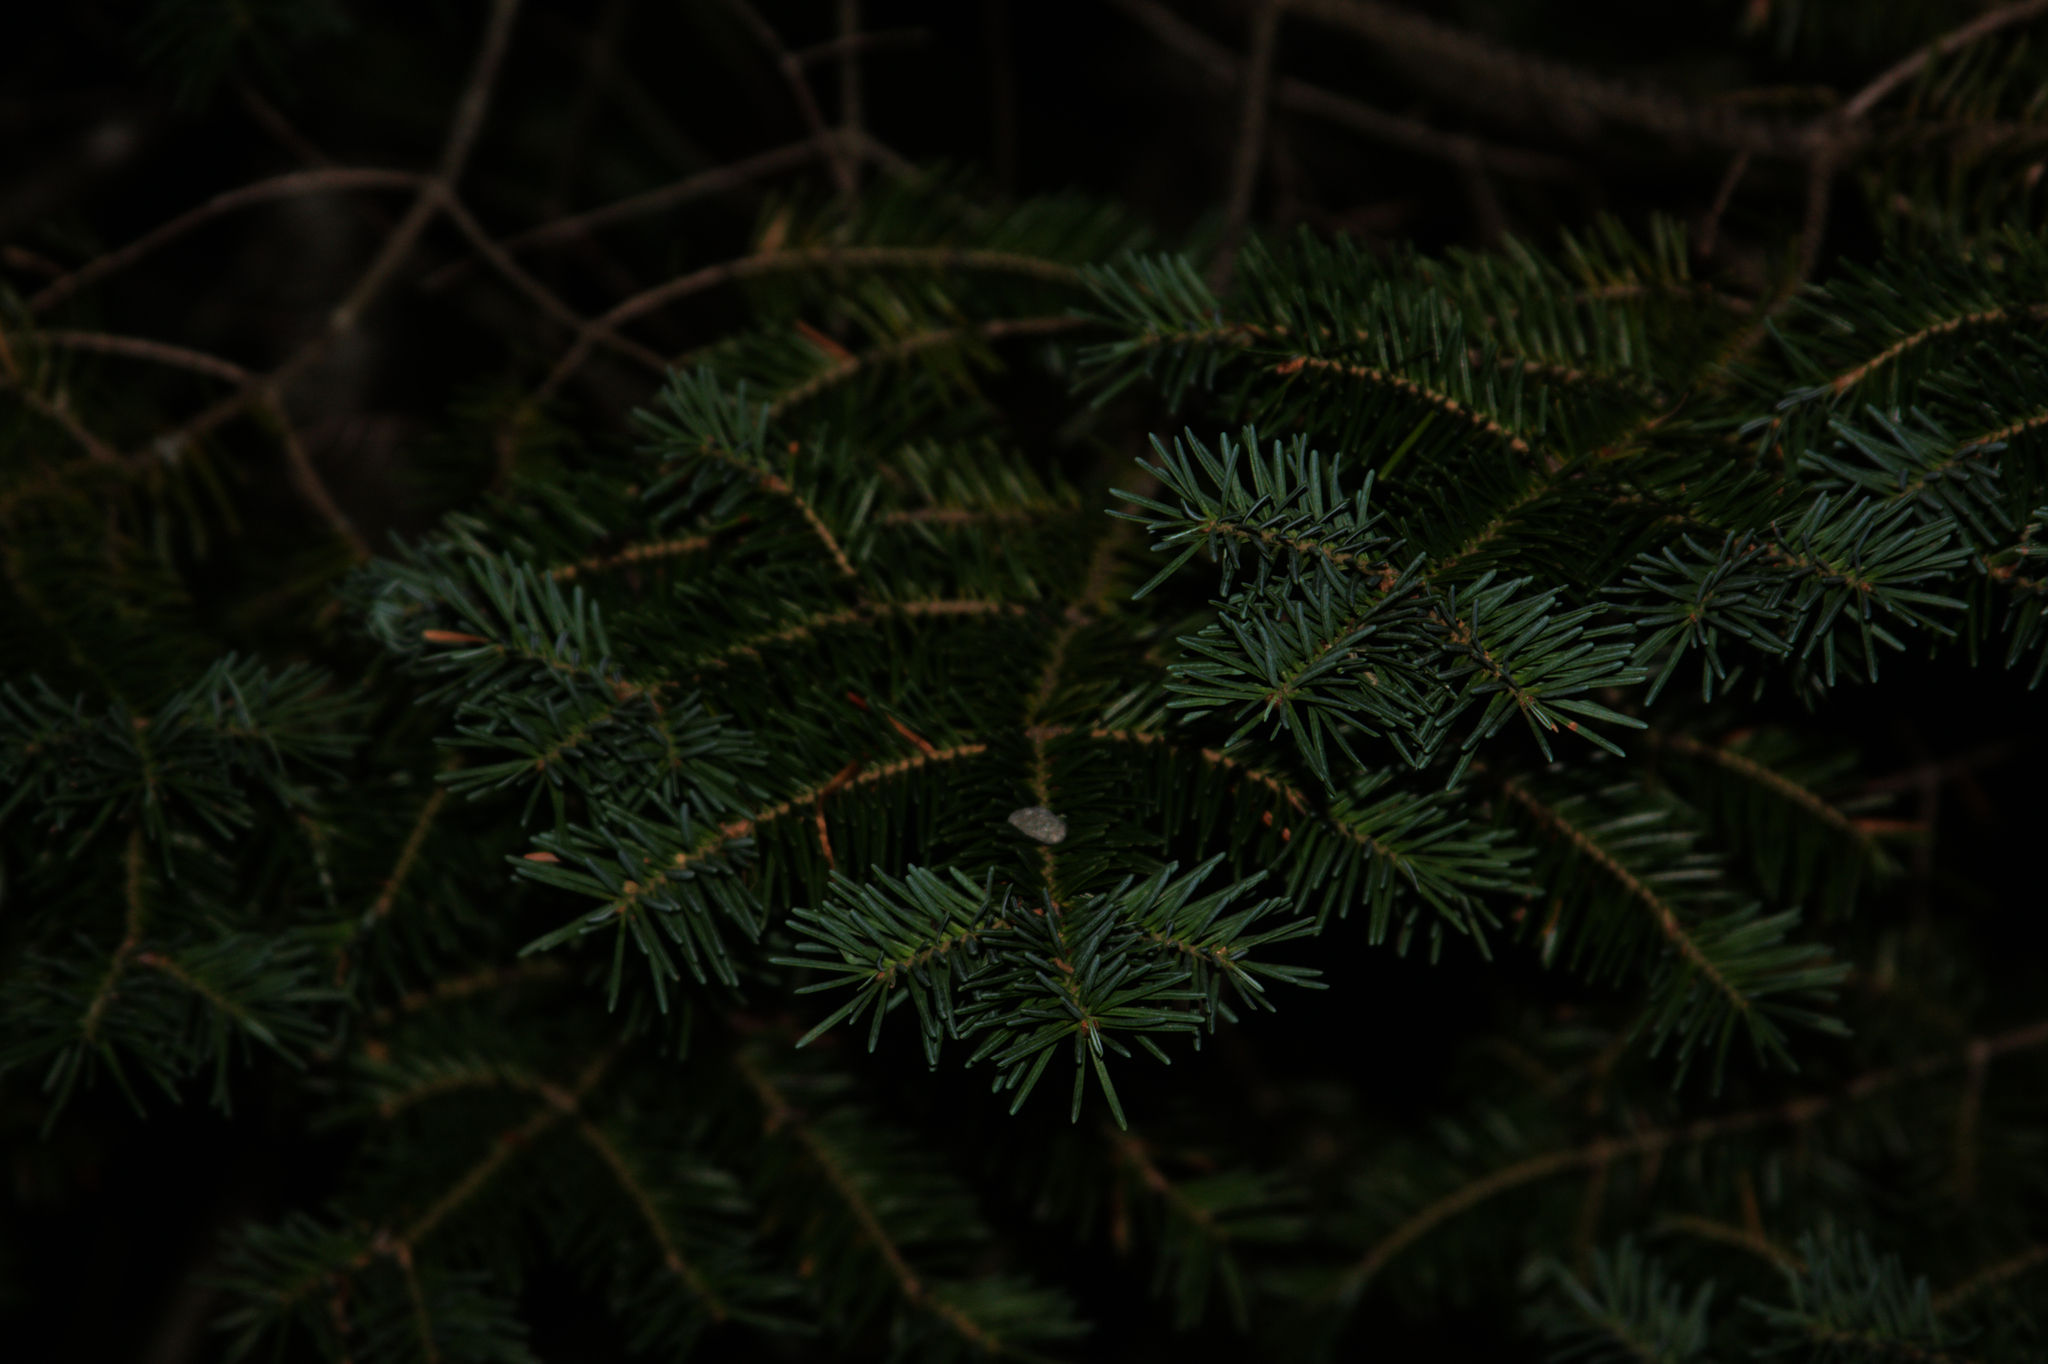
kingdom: Plantae
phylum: Tracheophyta
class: Pinopsida
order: Pinales
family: Pinaceae
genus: Abies
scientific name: Abies balsamea
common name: Balsam fir
